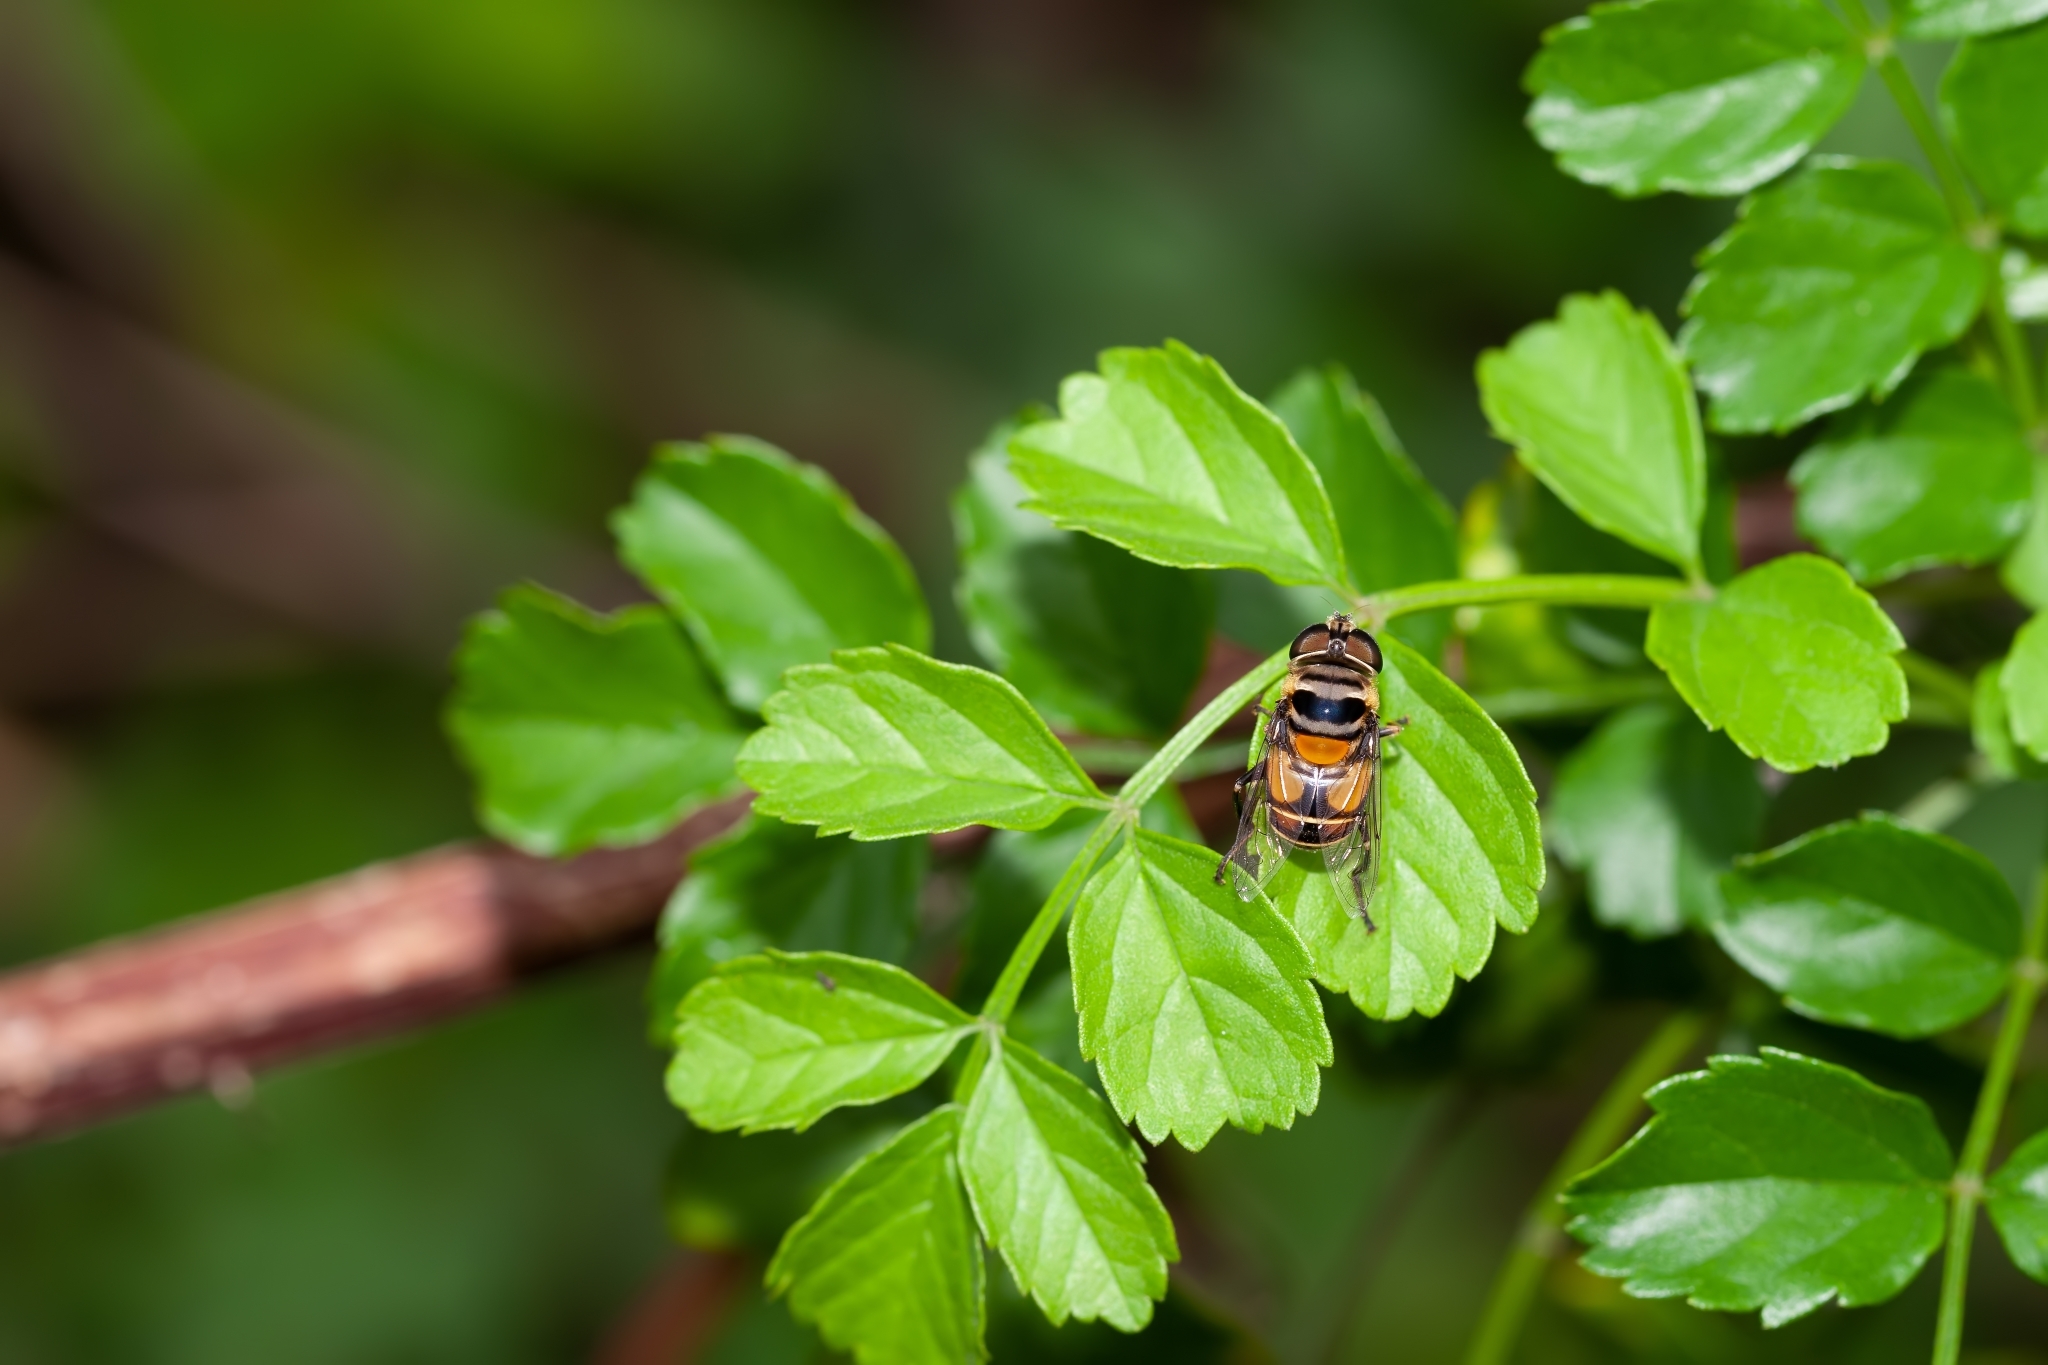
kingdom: Animalia
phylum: Arthropoda
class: Insecta
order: Diptera
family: Syrphidae
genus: Palpada
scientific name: Palpada agrorum
